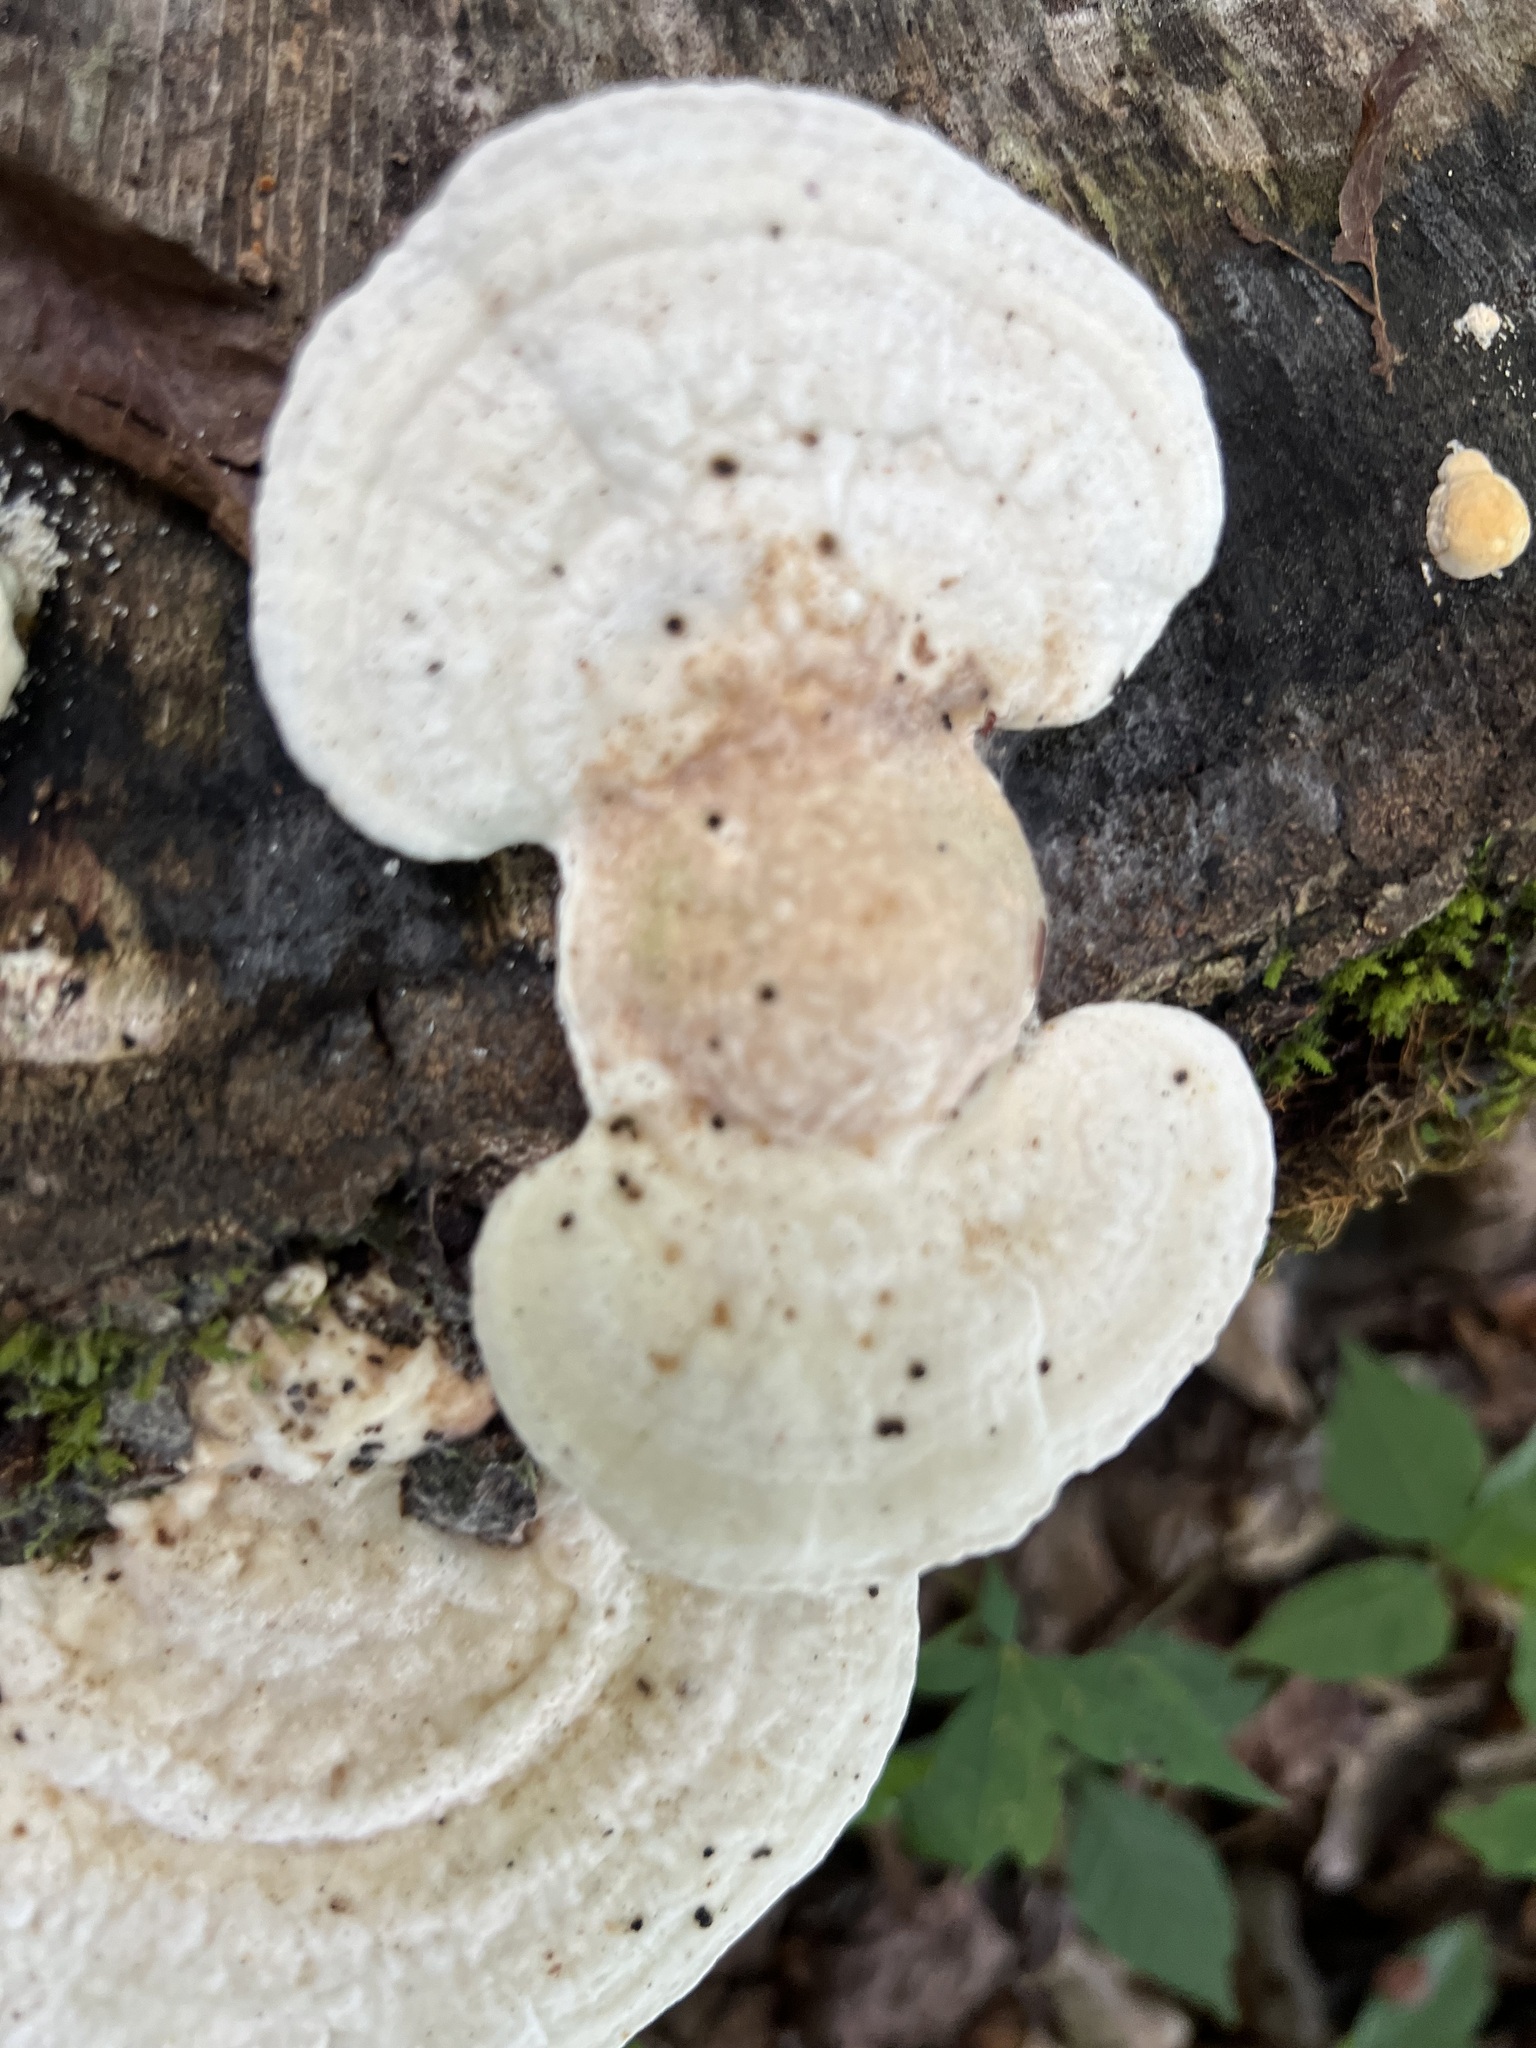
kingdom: Fungi
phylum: Basidiomycota
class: Agaricomycetes
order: Polyporales
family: Polyporaceae
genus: Trametes
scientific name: Trametes gibbosa
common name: Lumpy bracket
